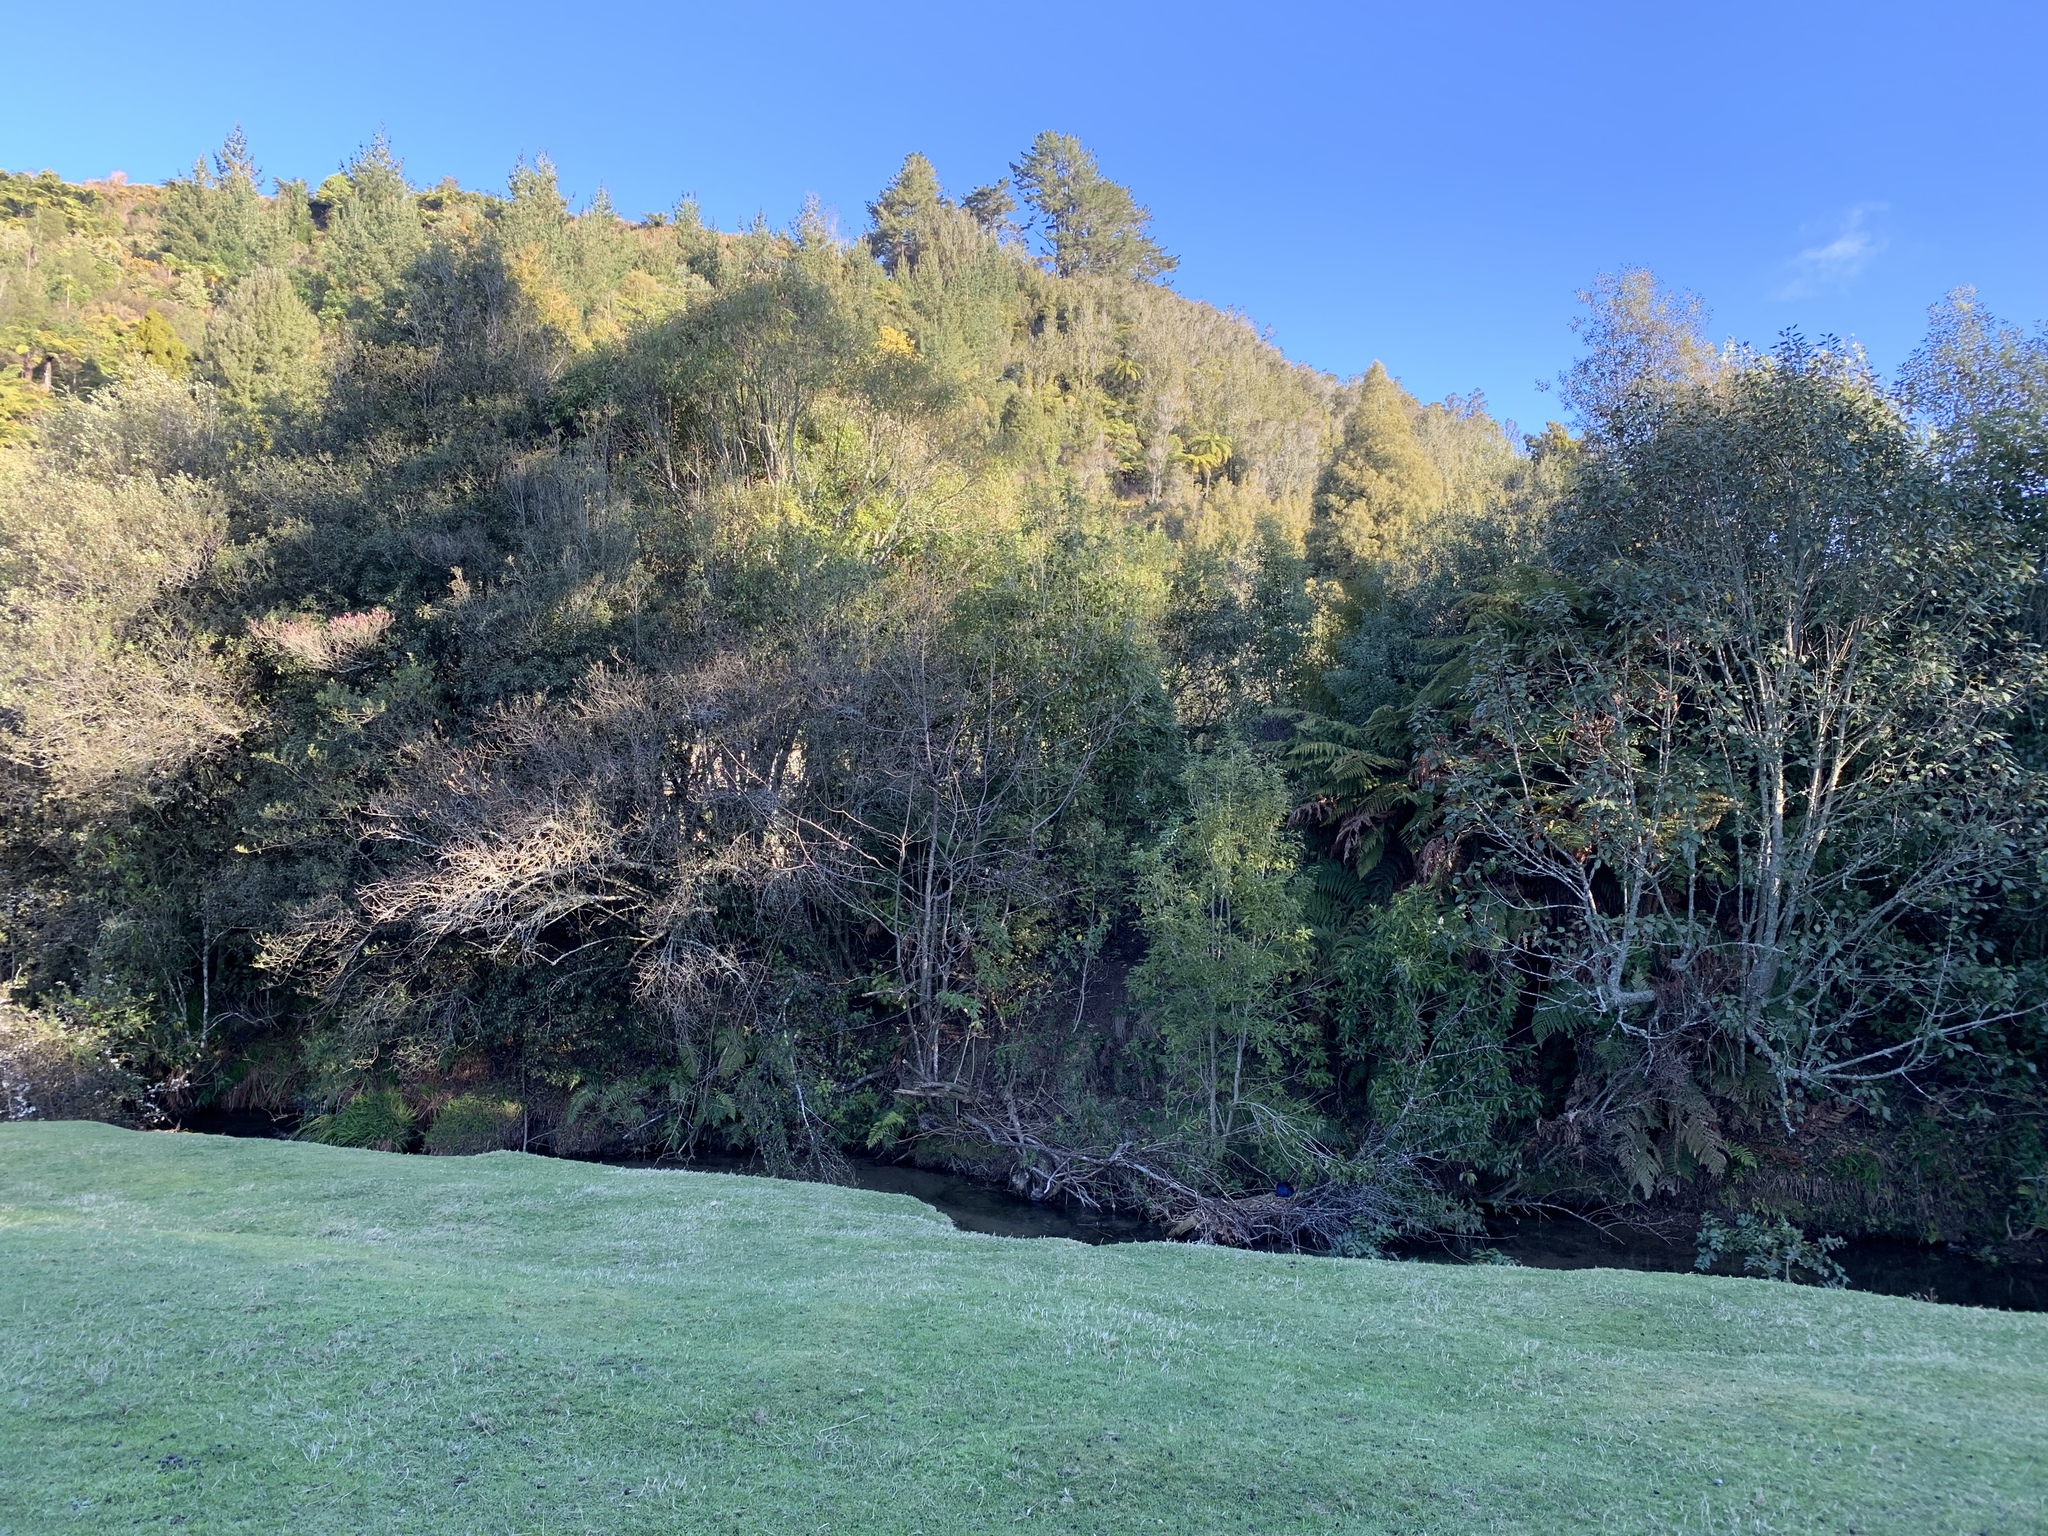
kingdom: Animalia
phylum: Chordata
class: Aves
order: Gruiformes
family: Rallidae
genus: Porphyrio
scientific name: Porphyrio melanotus
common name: Australasian swamphen
